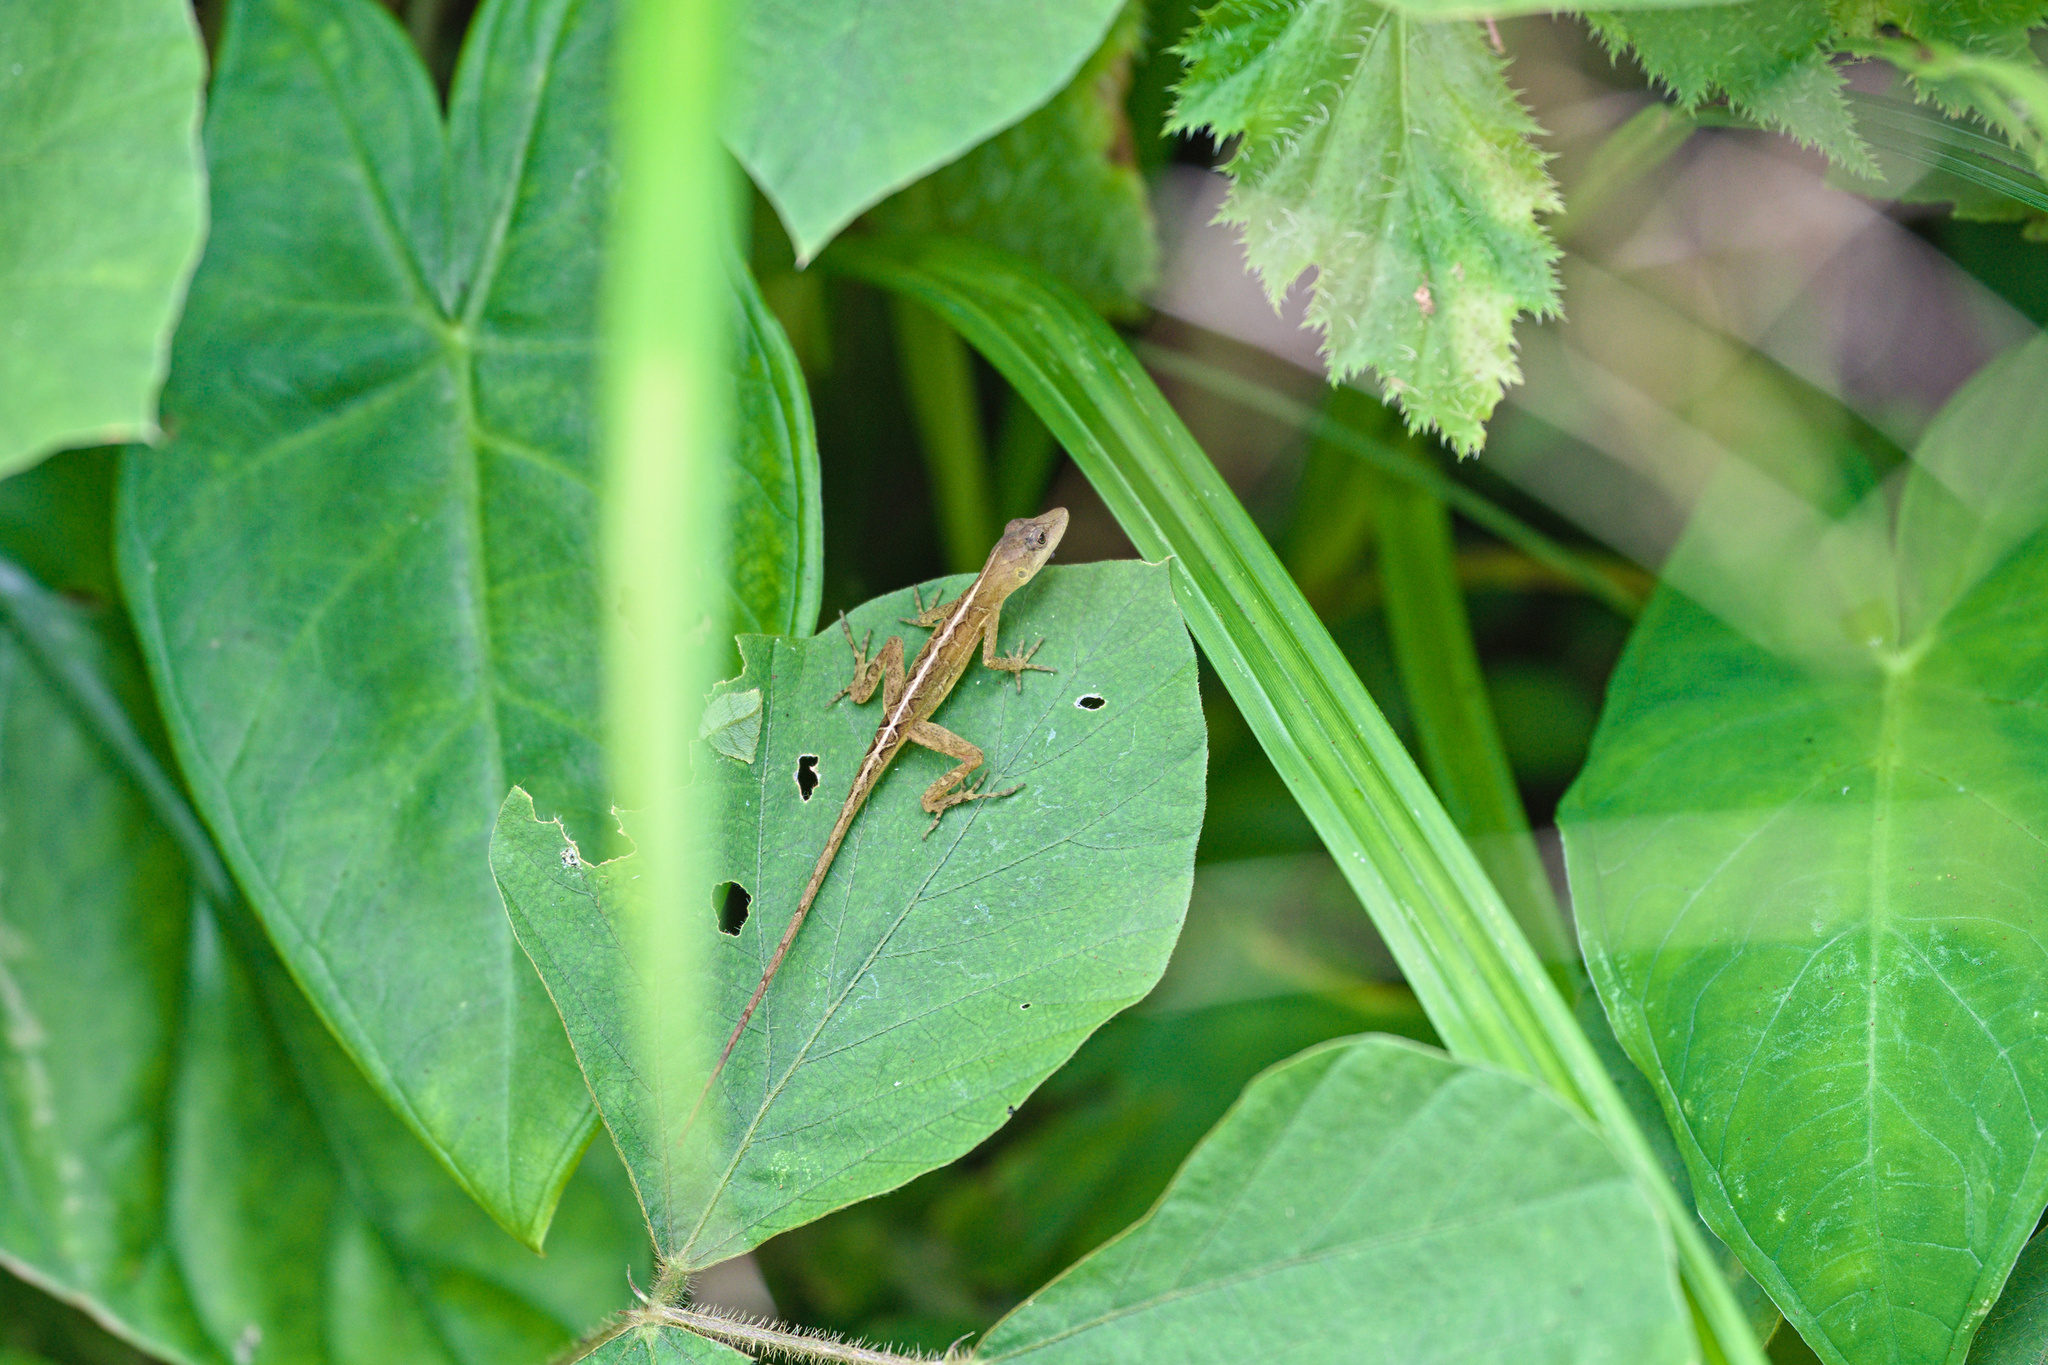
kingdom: Animalia
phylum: Chordata
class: Squamata
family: Dactyloidae
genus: Anolis
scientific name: Anolis polylepis
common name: Many-scaled anole
